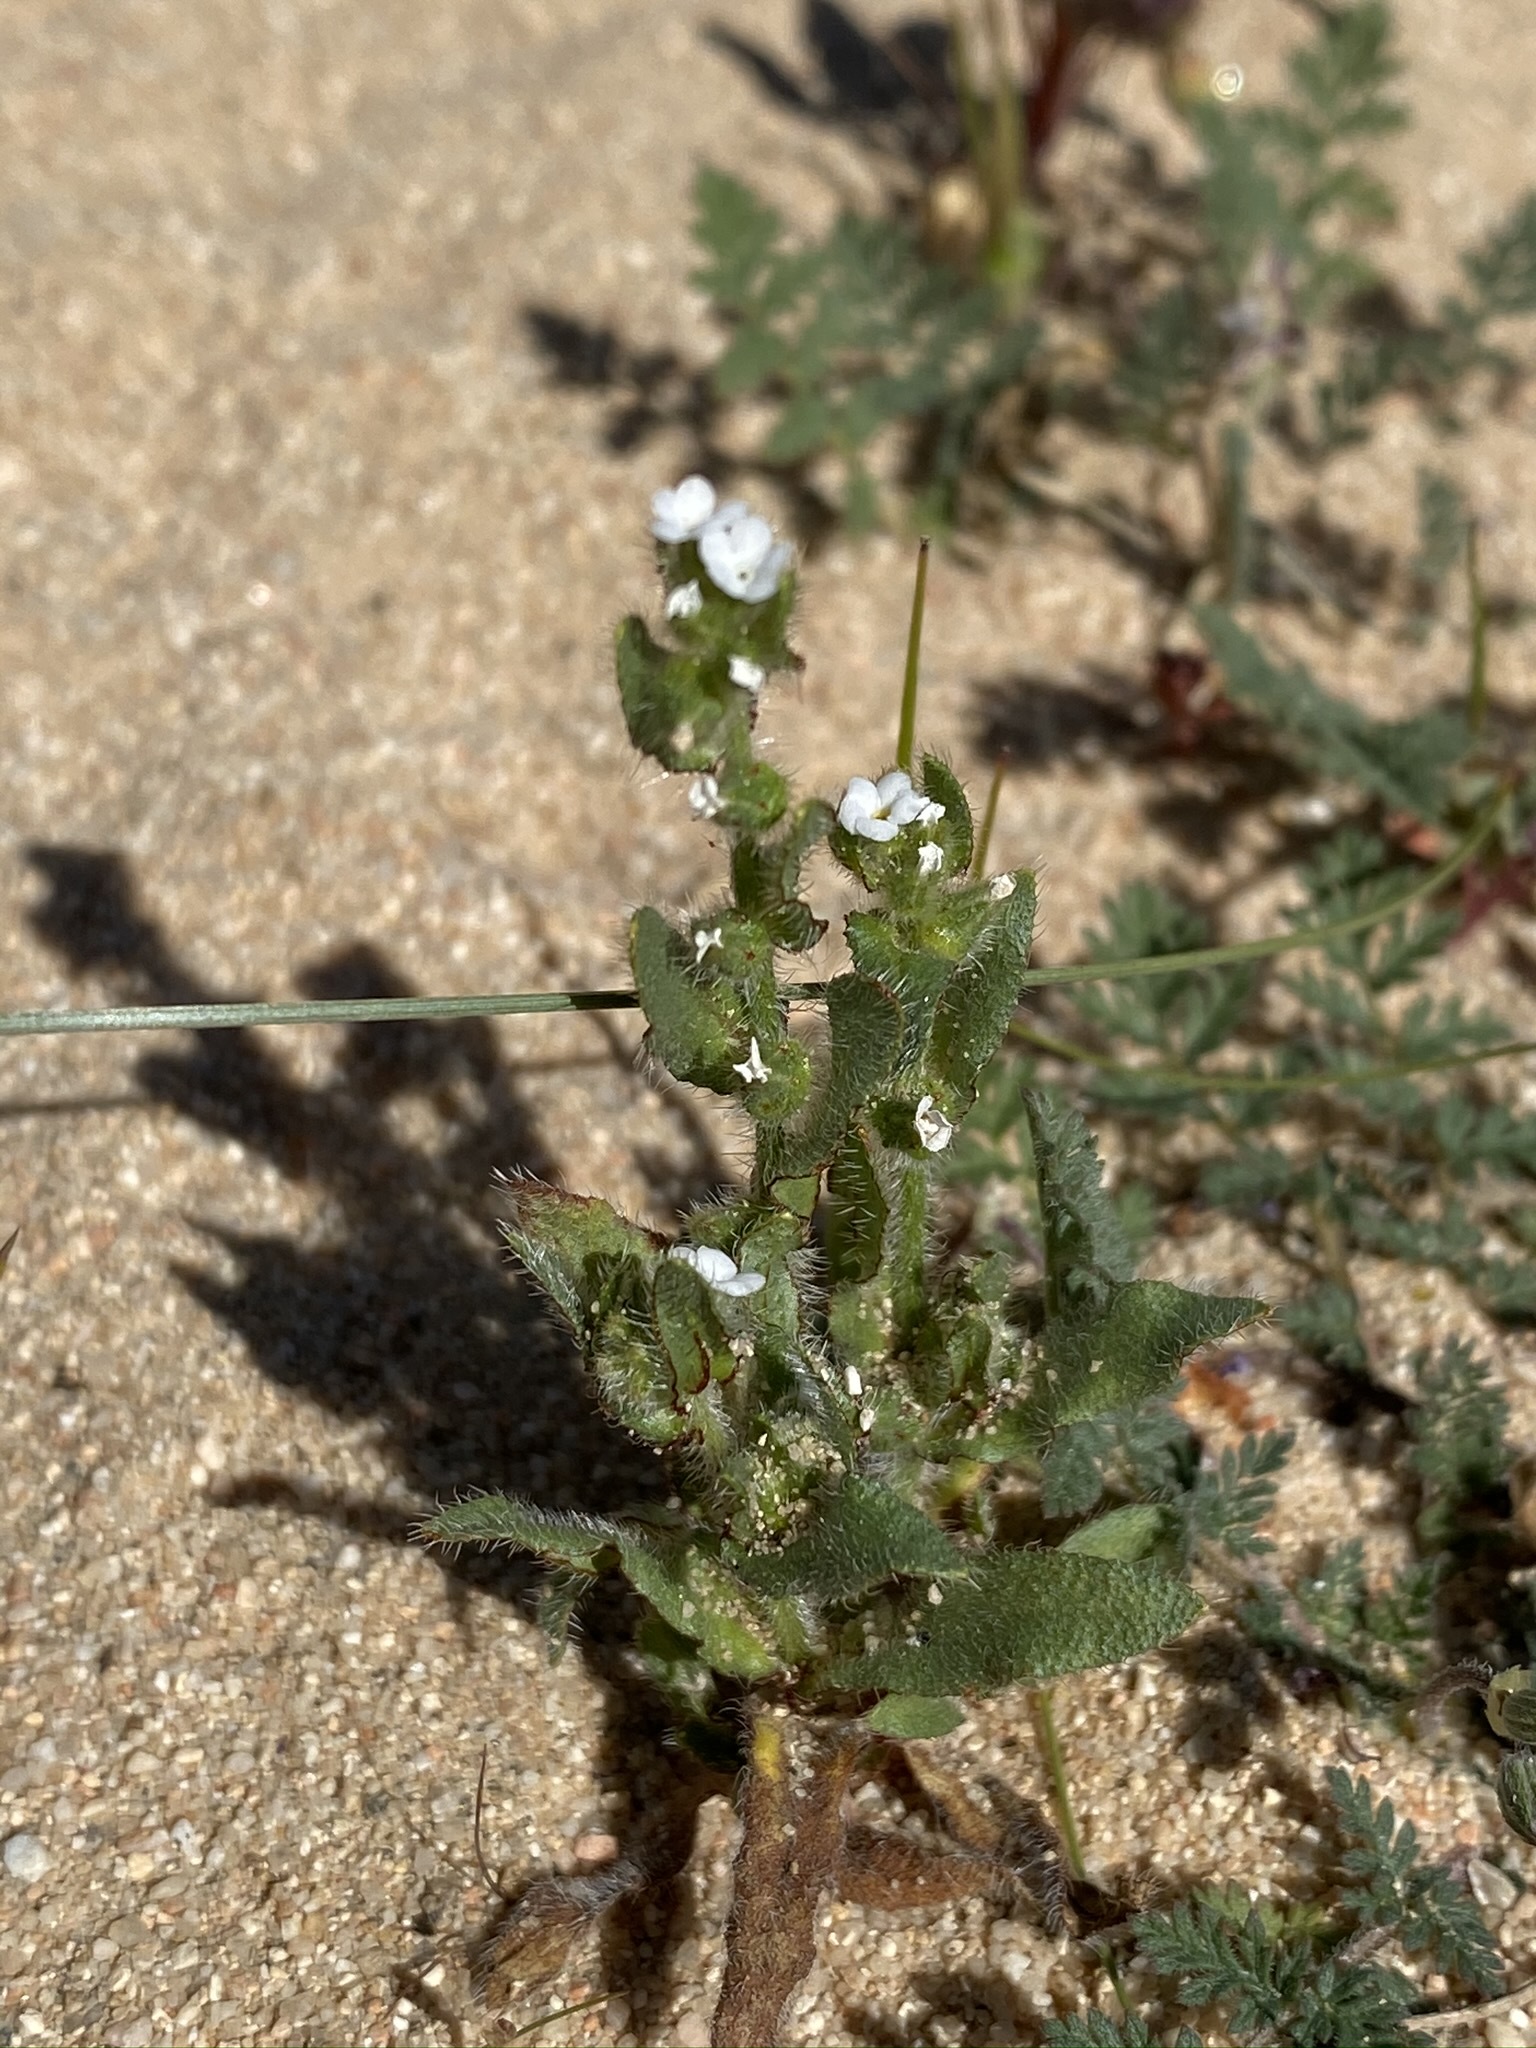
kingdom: Plantae
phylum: Tracheophyta
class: Magnoliopsida
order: Boraginales
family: Boraginaceae
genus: Plagiobothrys
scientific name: Plagiobothrys arizonicus
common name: Arizona popcorn-flower
